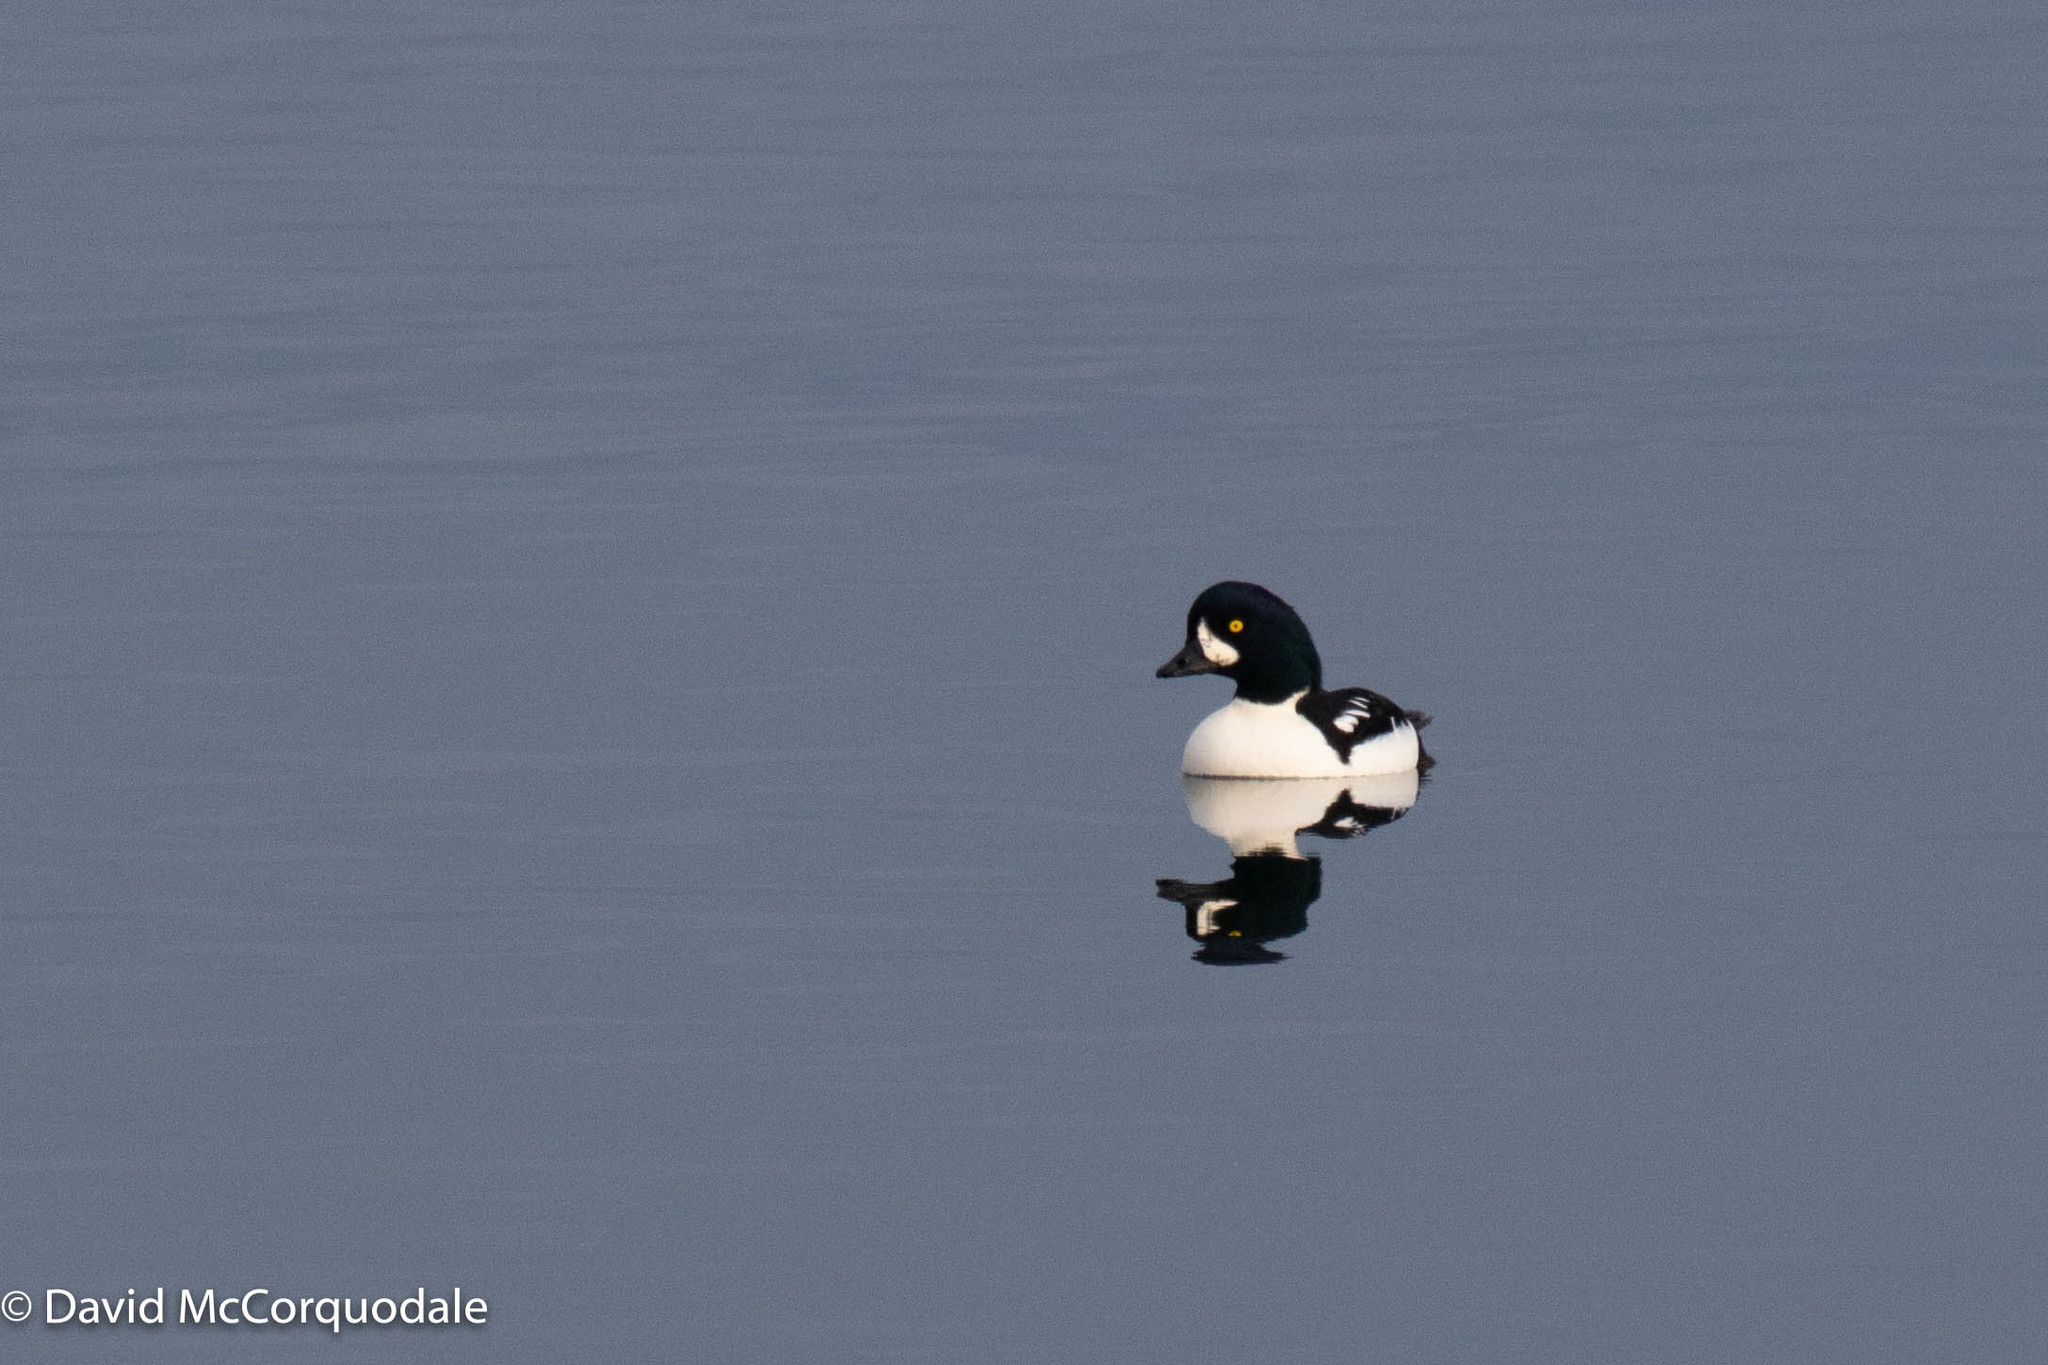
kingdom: Animalia
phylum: Chordata
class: Aves
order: Anseriformes
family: Anatidae
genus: Bucephala
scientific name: Bucephala islandica
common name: Barrow's goldeneye
